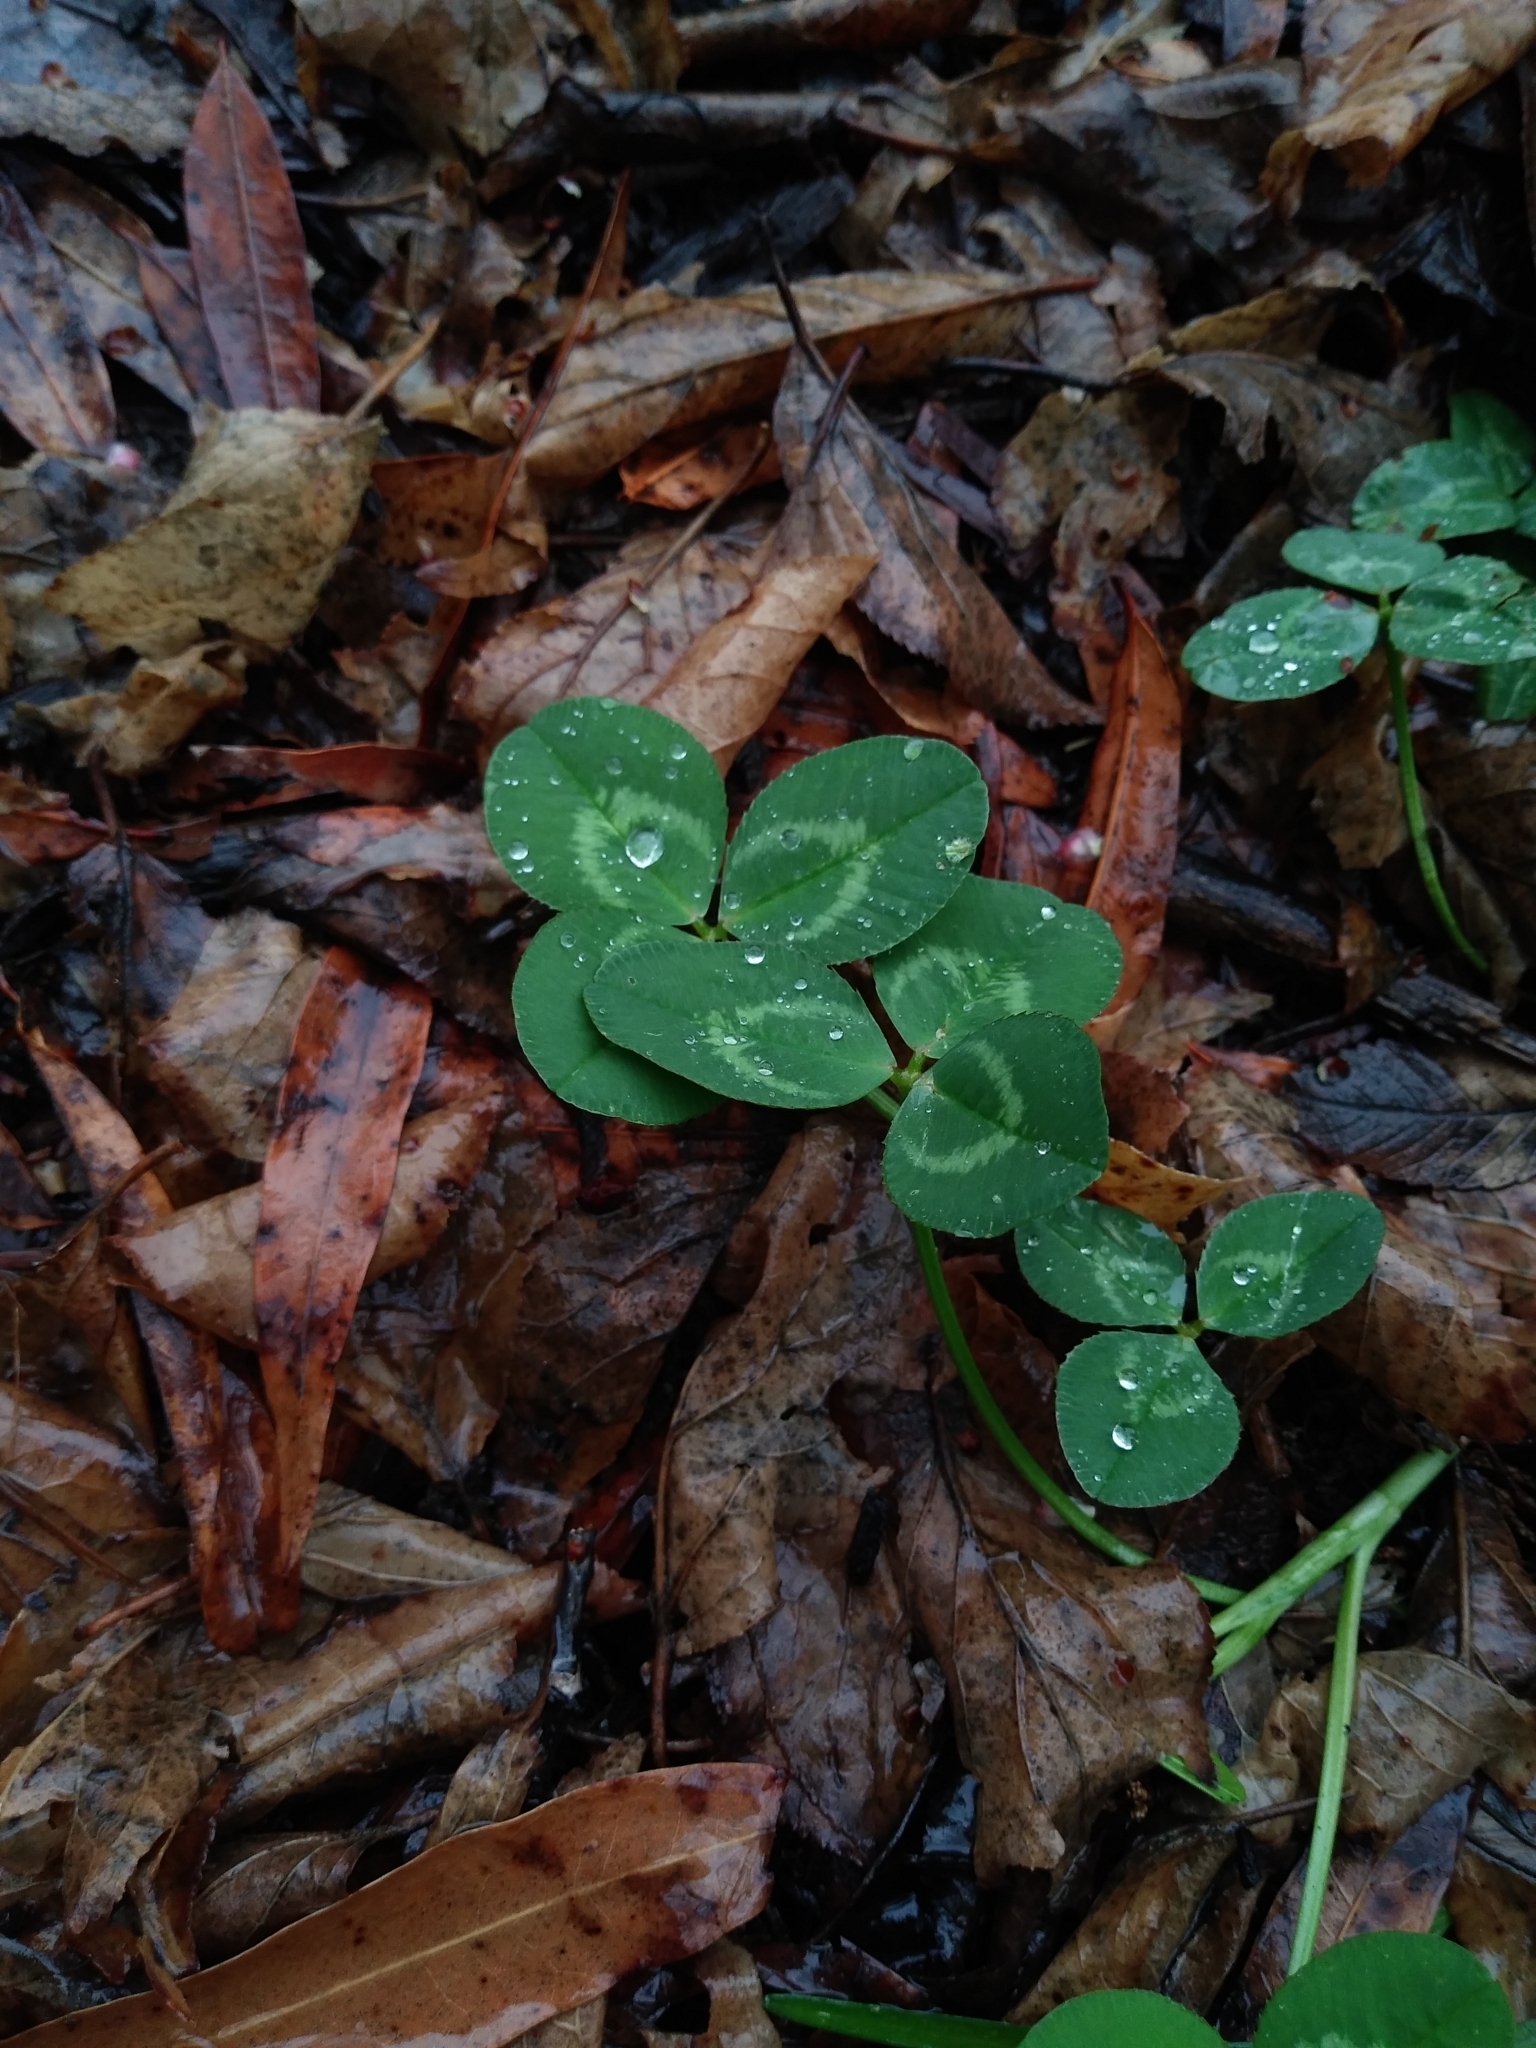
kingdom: Plantae
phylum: Tracheophyta
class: Magnoliopsida
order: Fabales
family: Fabaceae
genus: Trifolium
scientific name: Trifolium repens
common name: White clover
